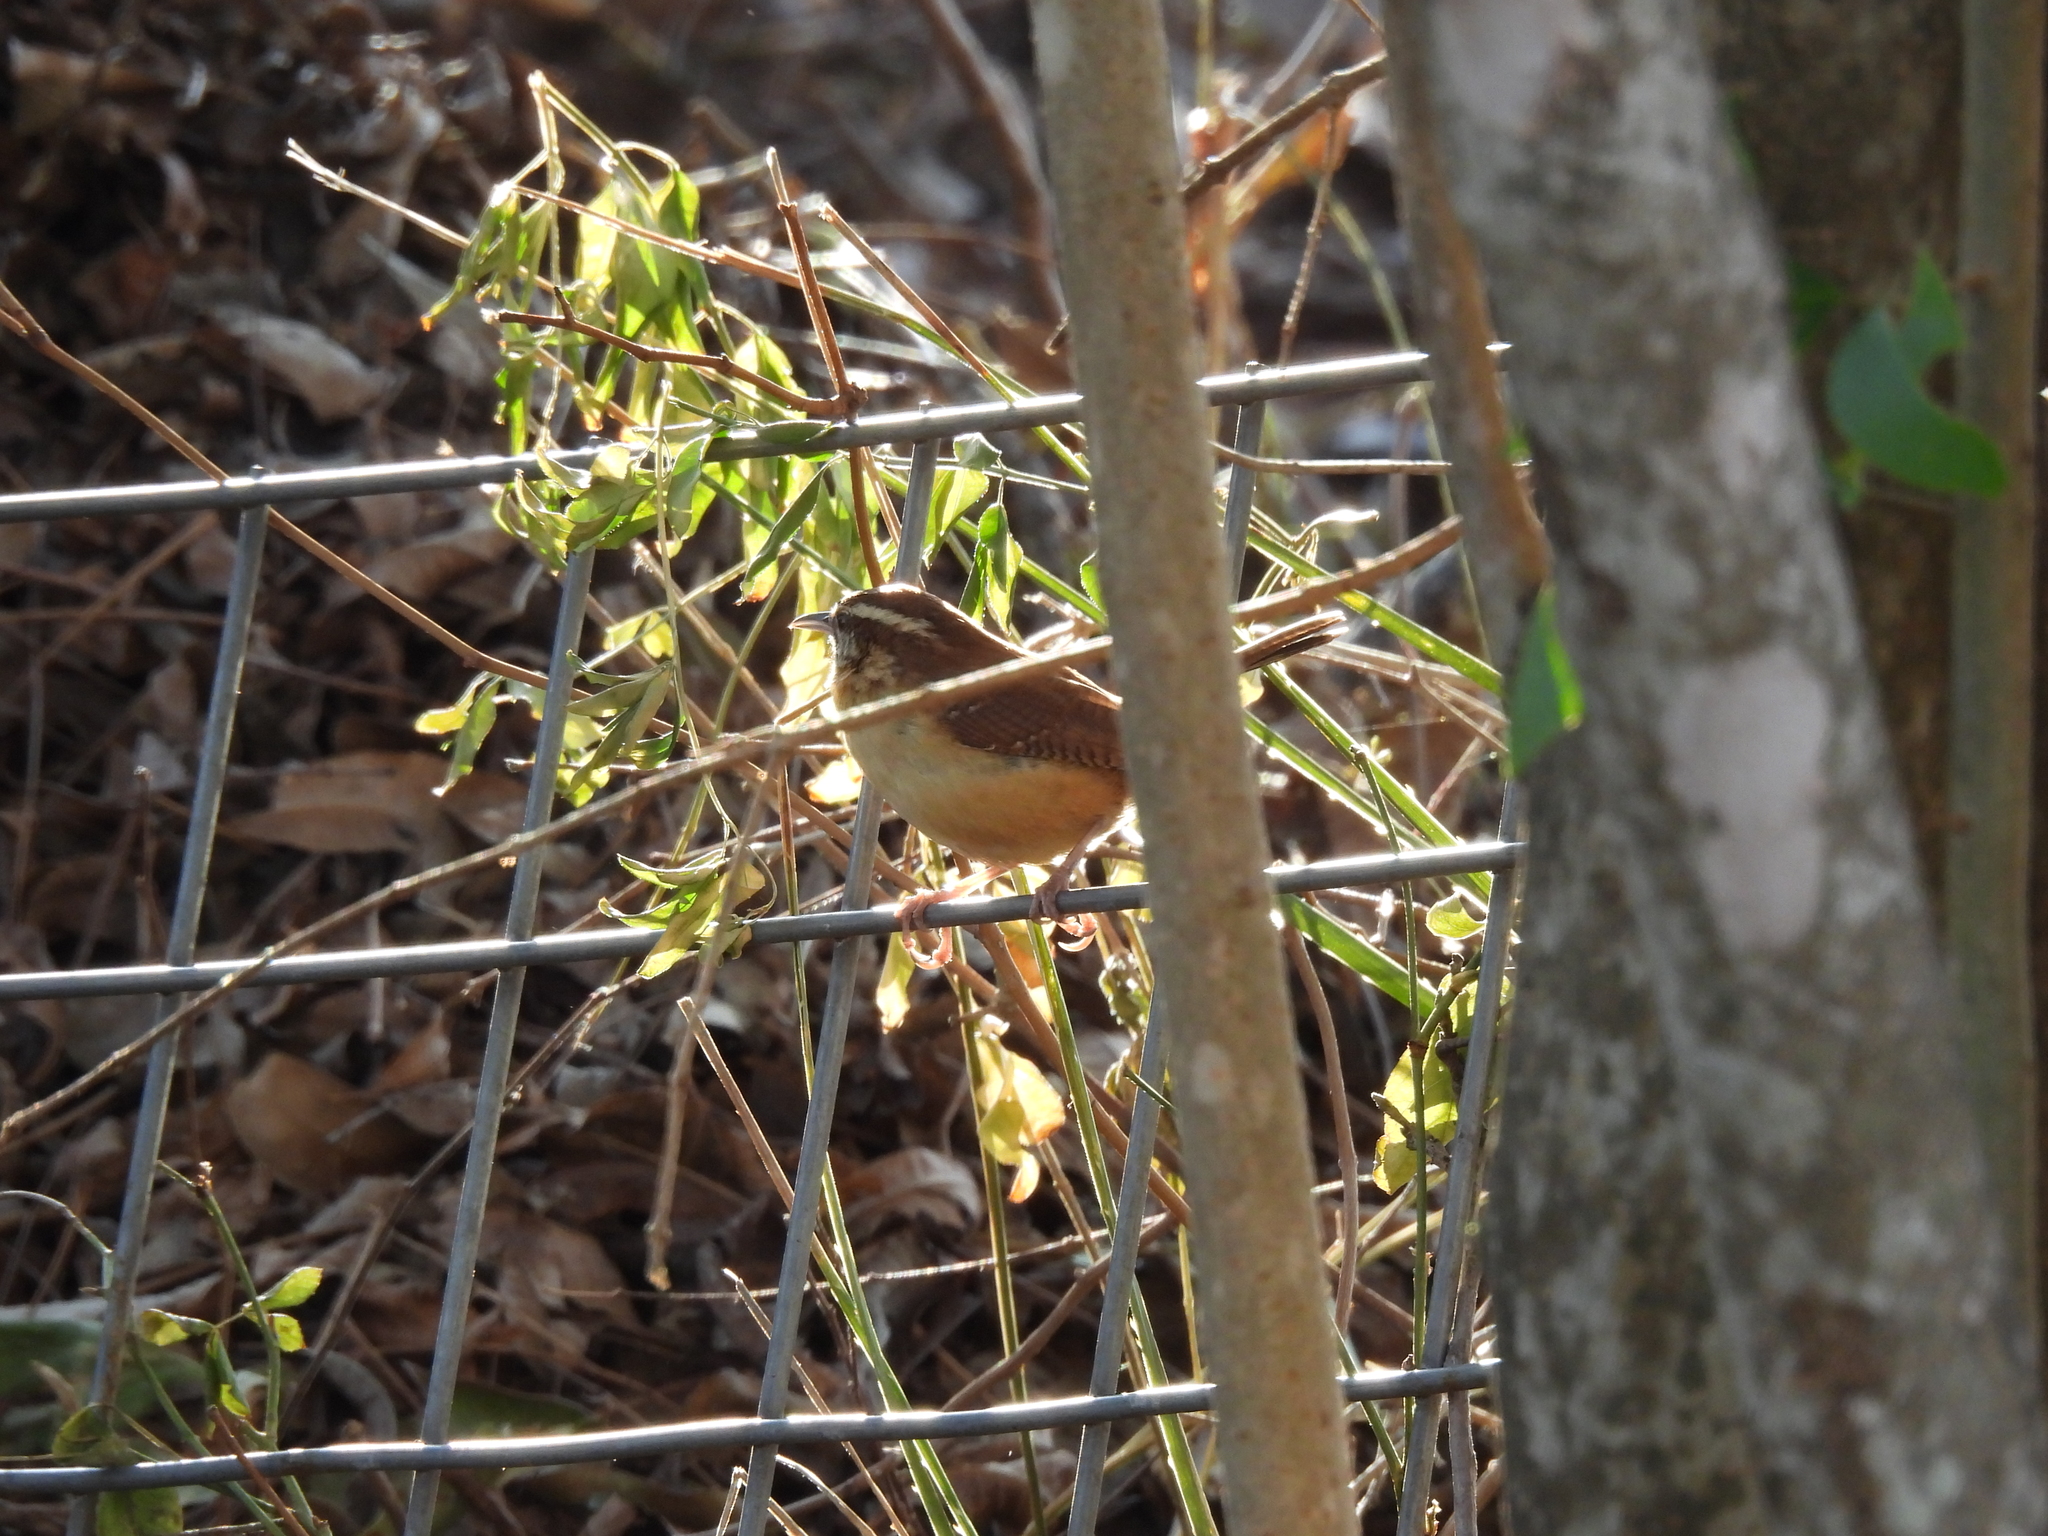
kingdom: Animalia
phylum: Chordata
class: Aves
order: Passeriformes
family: Troglodytidae
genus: Thryothorus
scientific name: Thryothorus ludovicianus
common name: Carolina wren
